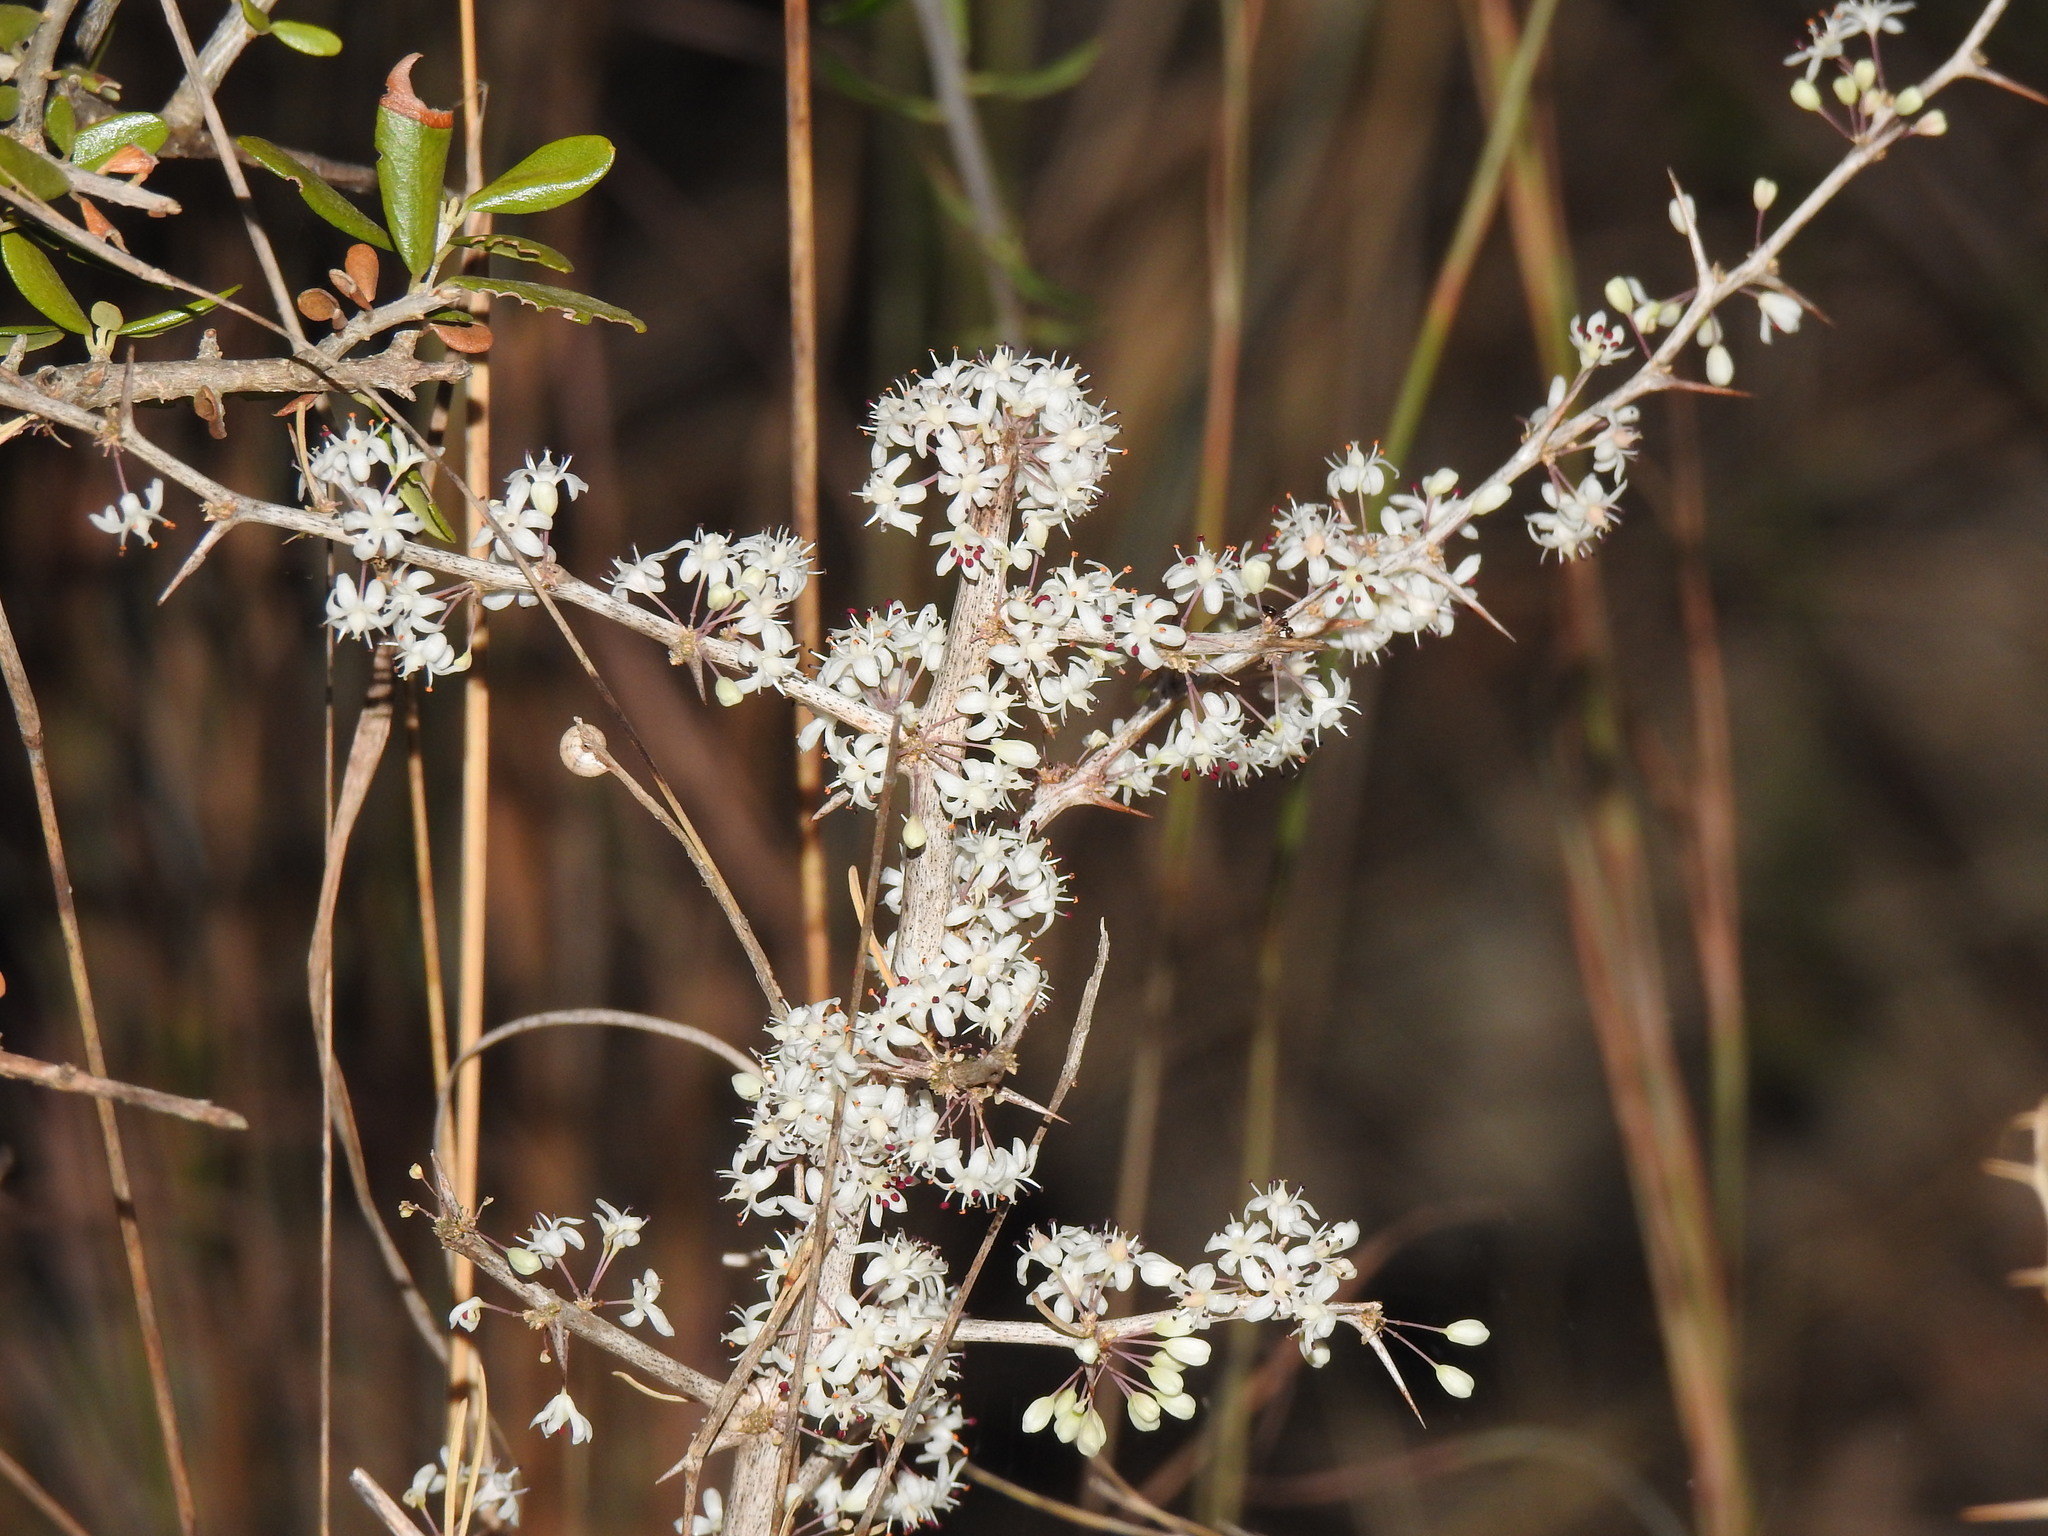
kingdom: Plantae
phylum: Tracheophyta
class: Liliopsida
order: Asparagales
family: Asparagaceae
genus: Asparagus
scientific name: Asparagus albus
